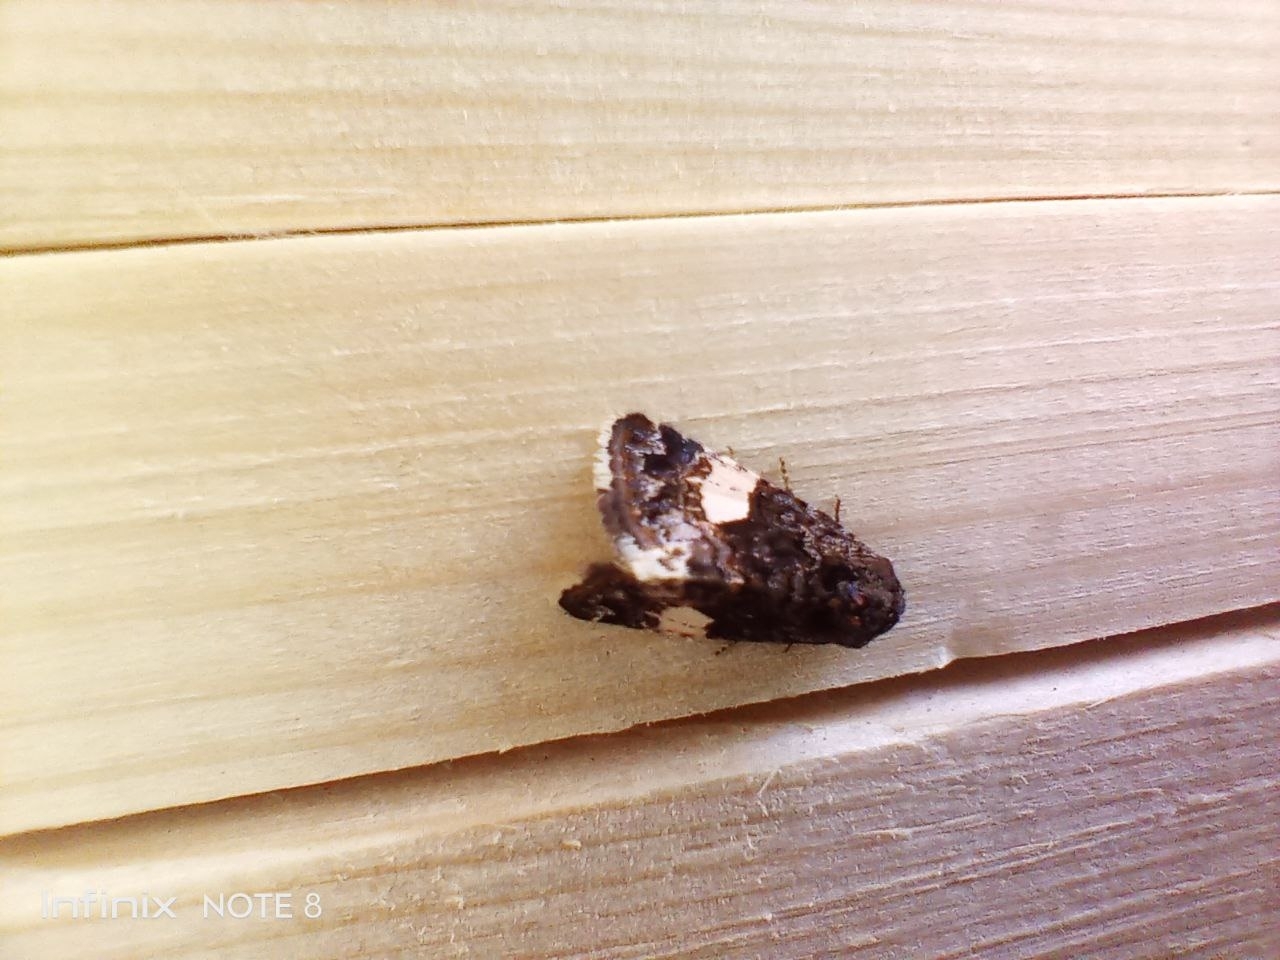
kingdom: Animalia
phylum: Arthropoda
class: Insecta
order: Lepidoptera
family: Erebidae
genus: Tyta
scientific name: Tyta luctuosa
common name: Four-spotted
